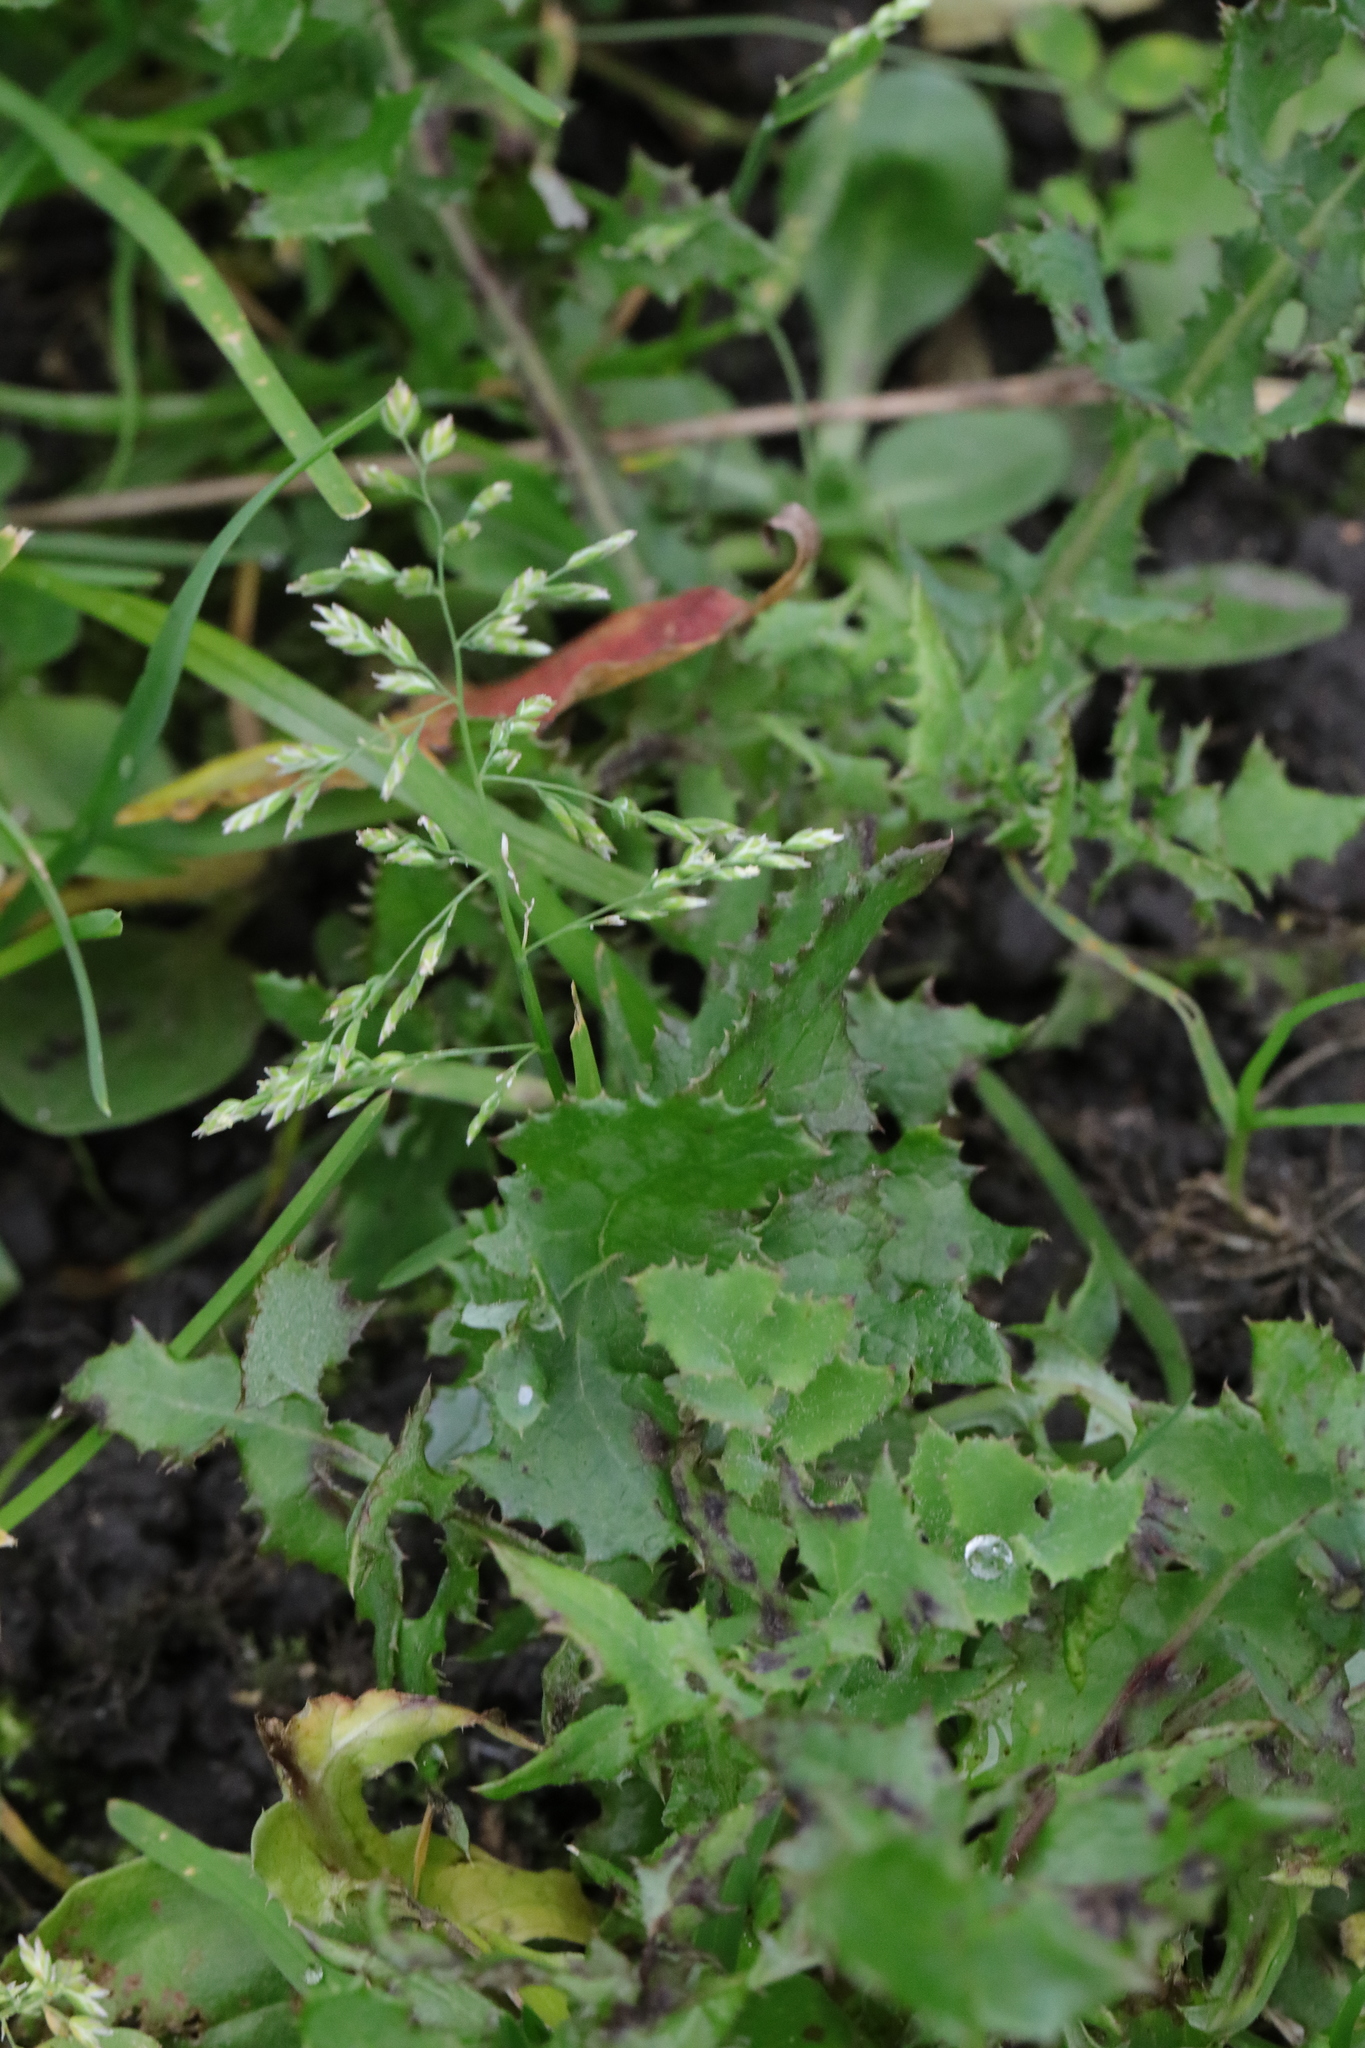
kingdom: Plantae
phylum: Tracheophyta
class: Liliopsida
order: Poales
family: Poaceae
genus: Poa
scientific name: Poa annua
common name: Annual bluegrass
